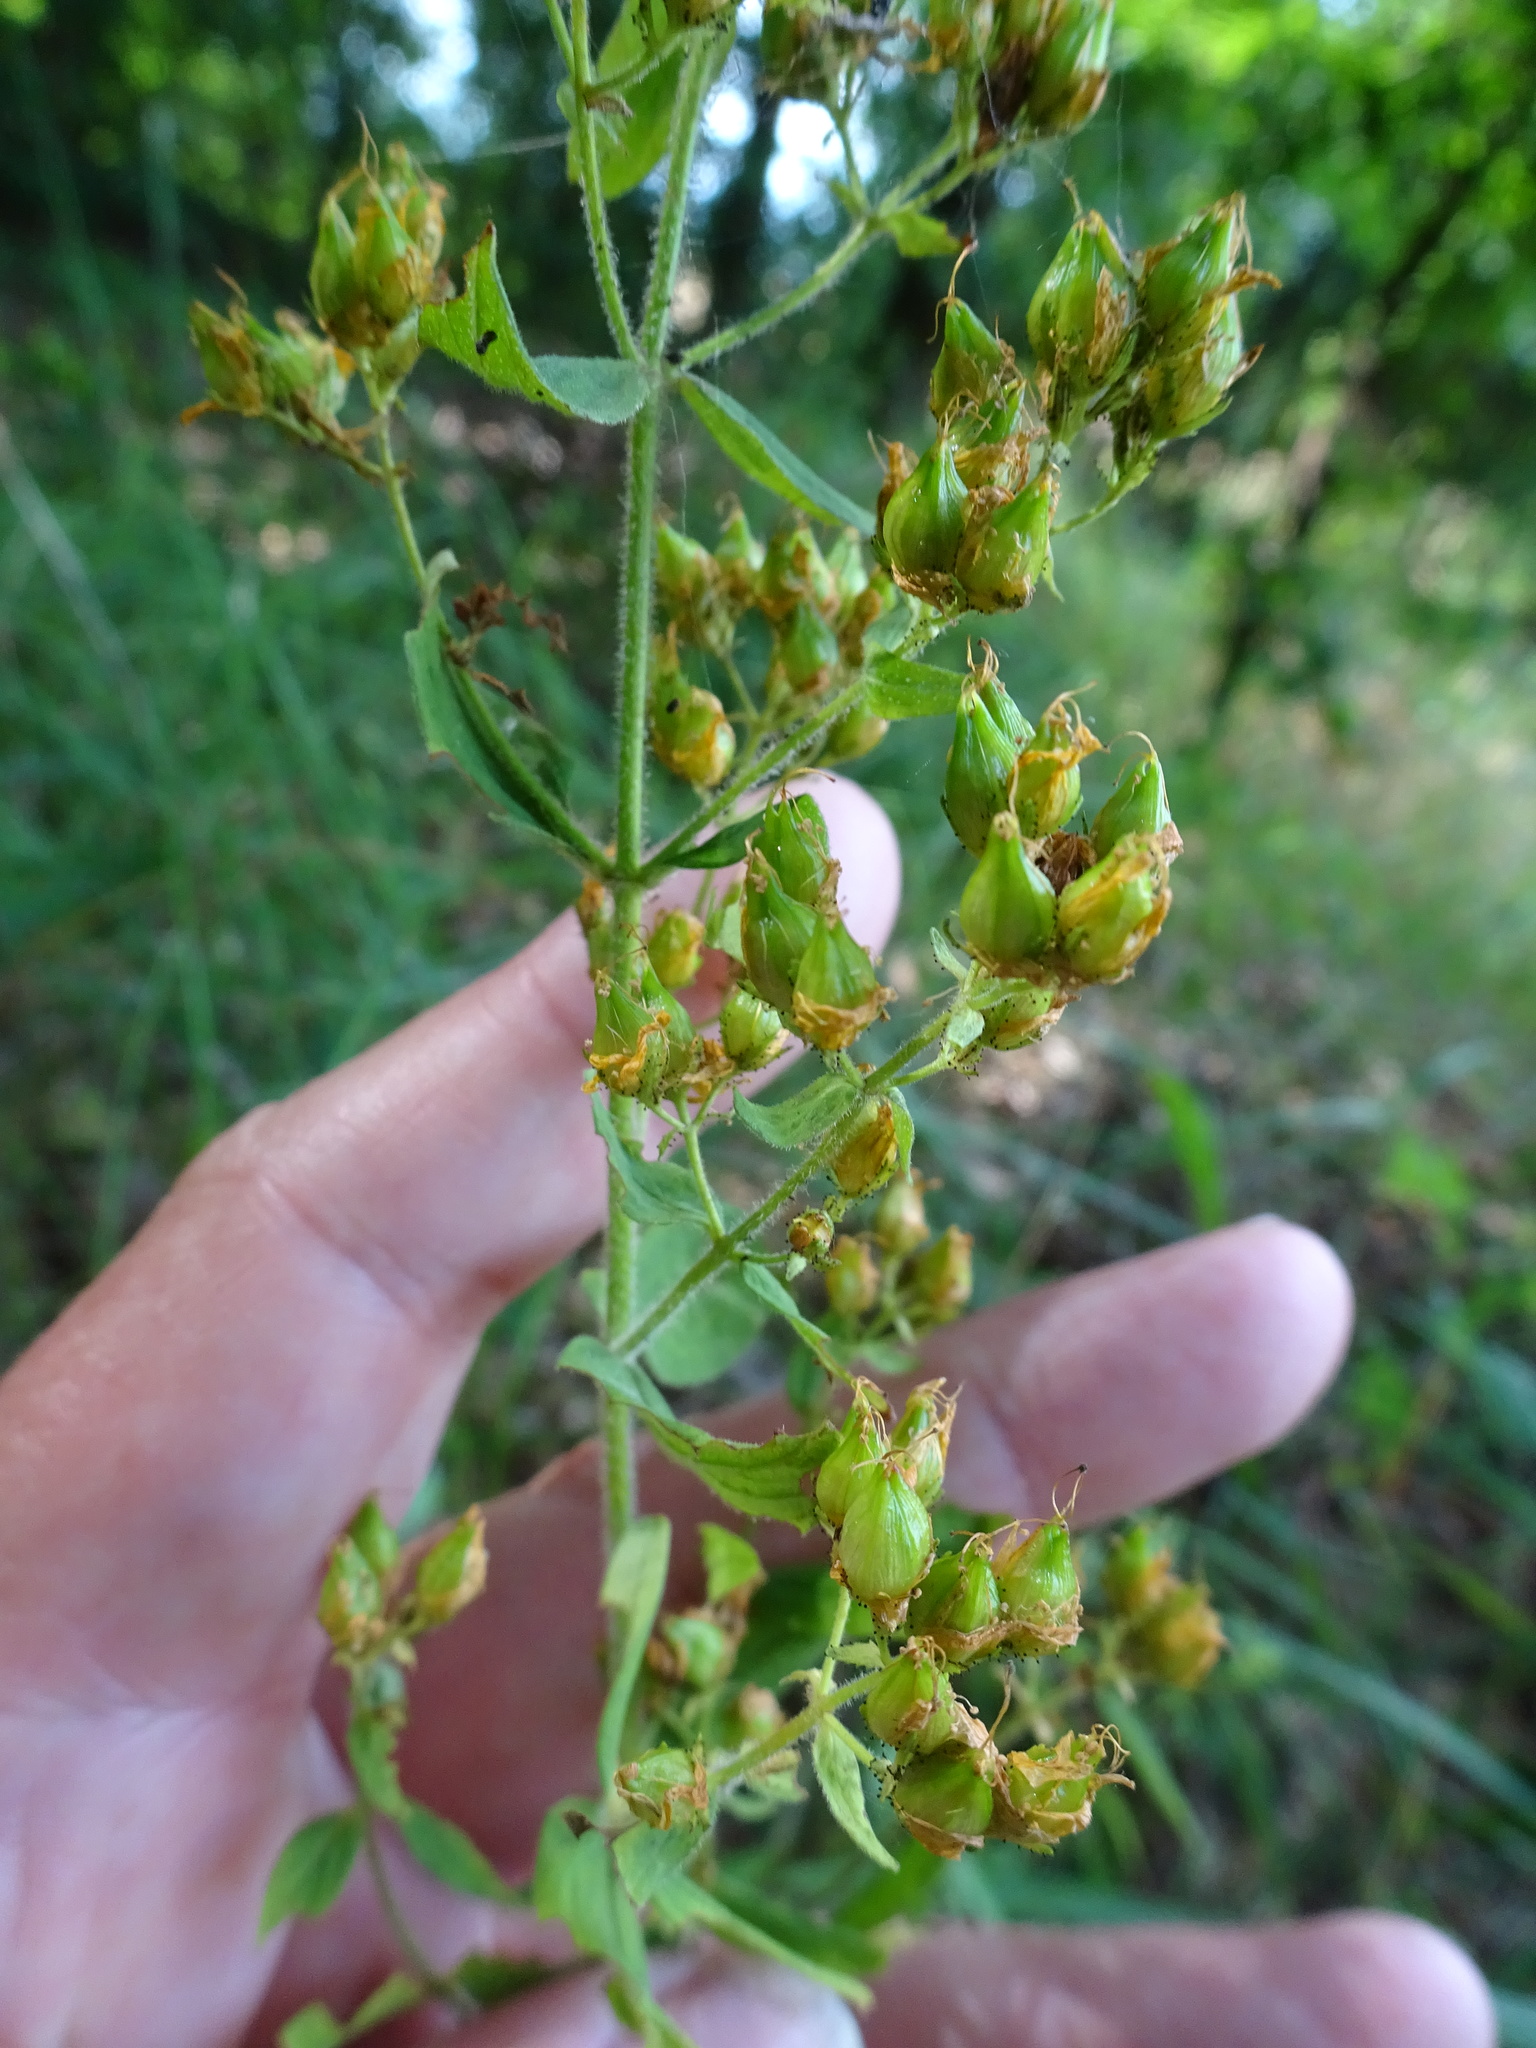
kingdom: Plantae
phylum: Tracheophyta
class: Magnoliopsida
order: Malpighiales
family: Hypericaceae
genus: Hypericum
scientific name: Hypericum hirsutum
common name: Hairy st. john's-wort
